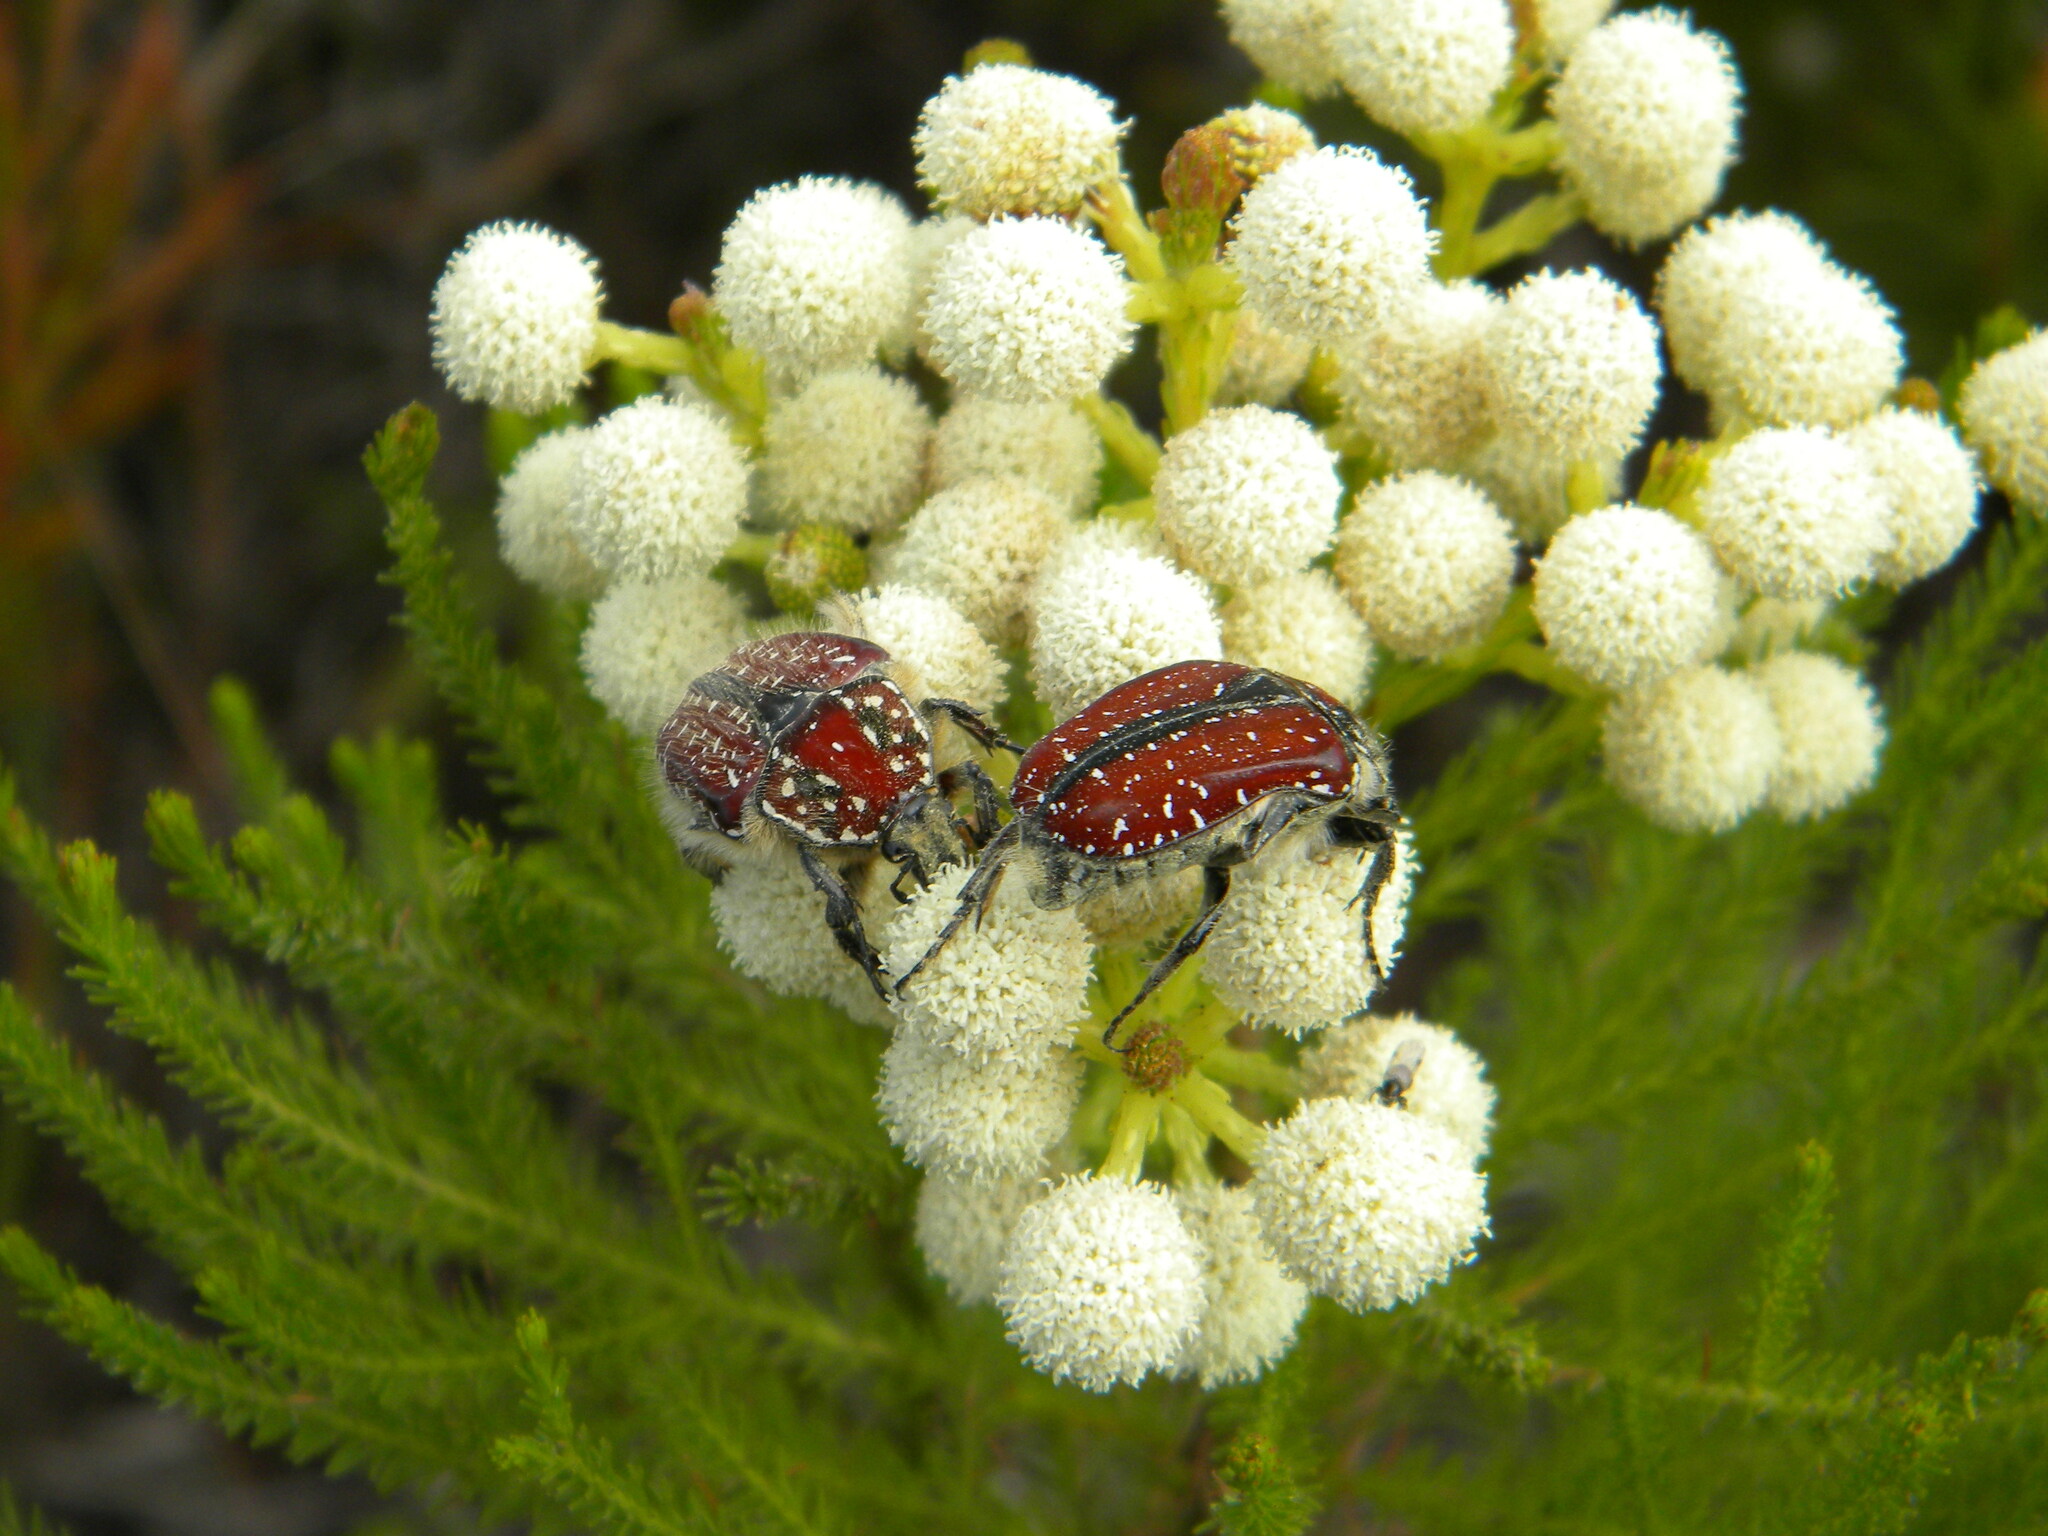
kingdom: Animalia
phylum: Arthropoda
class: Insecta
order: Coleoptera
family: Scarabaeidae
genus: Trichostetha
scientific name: Trichostetha capensis
